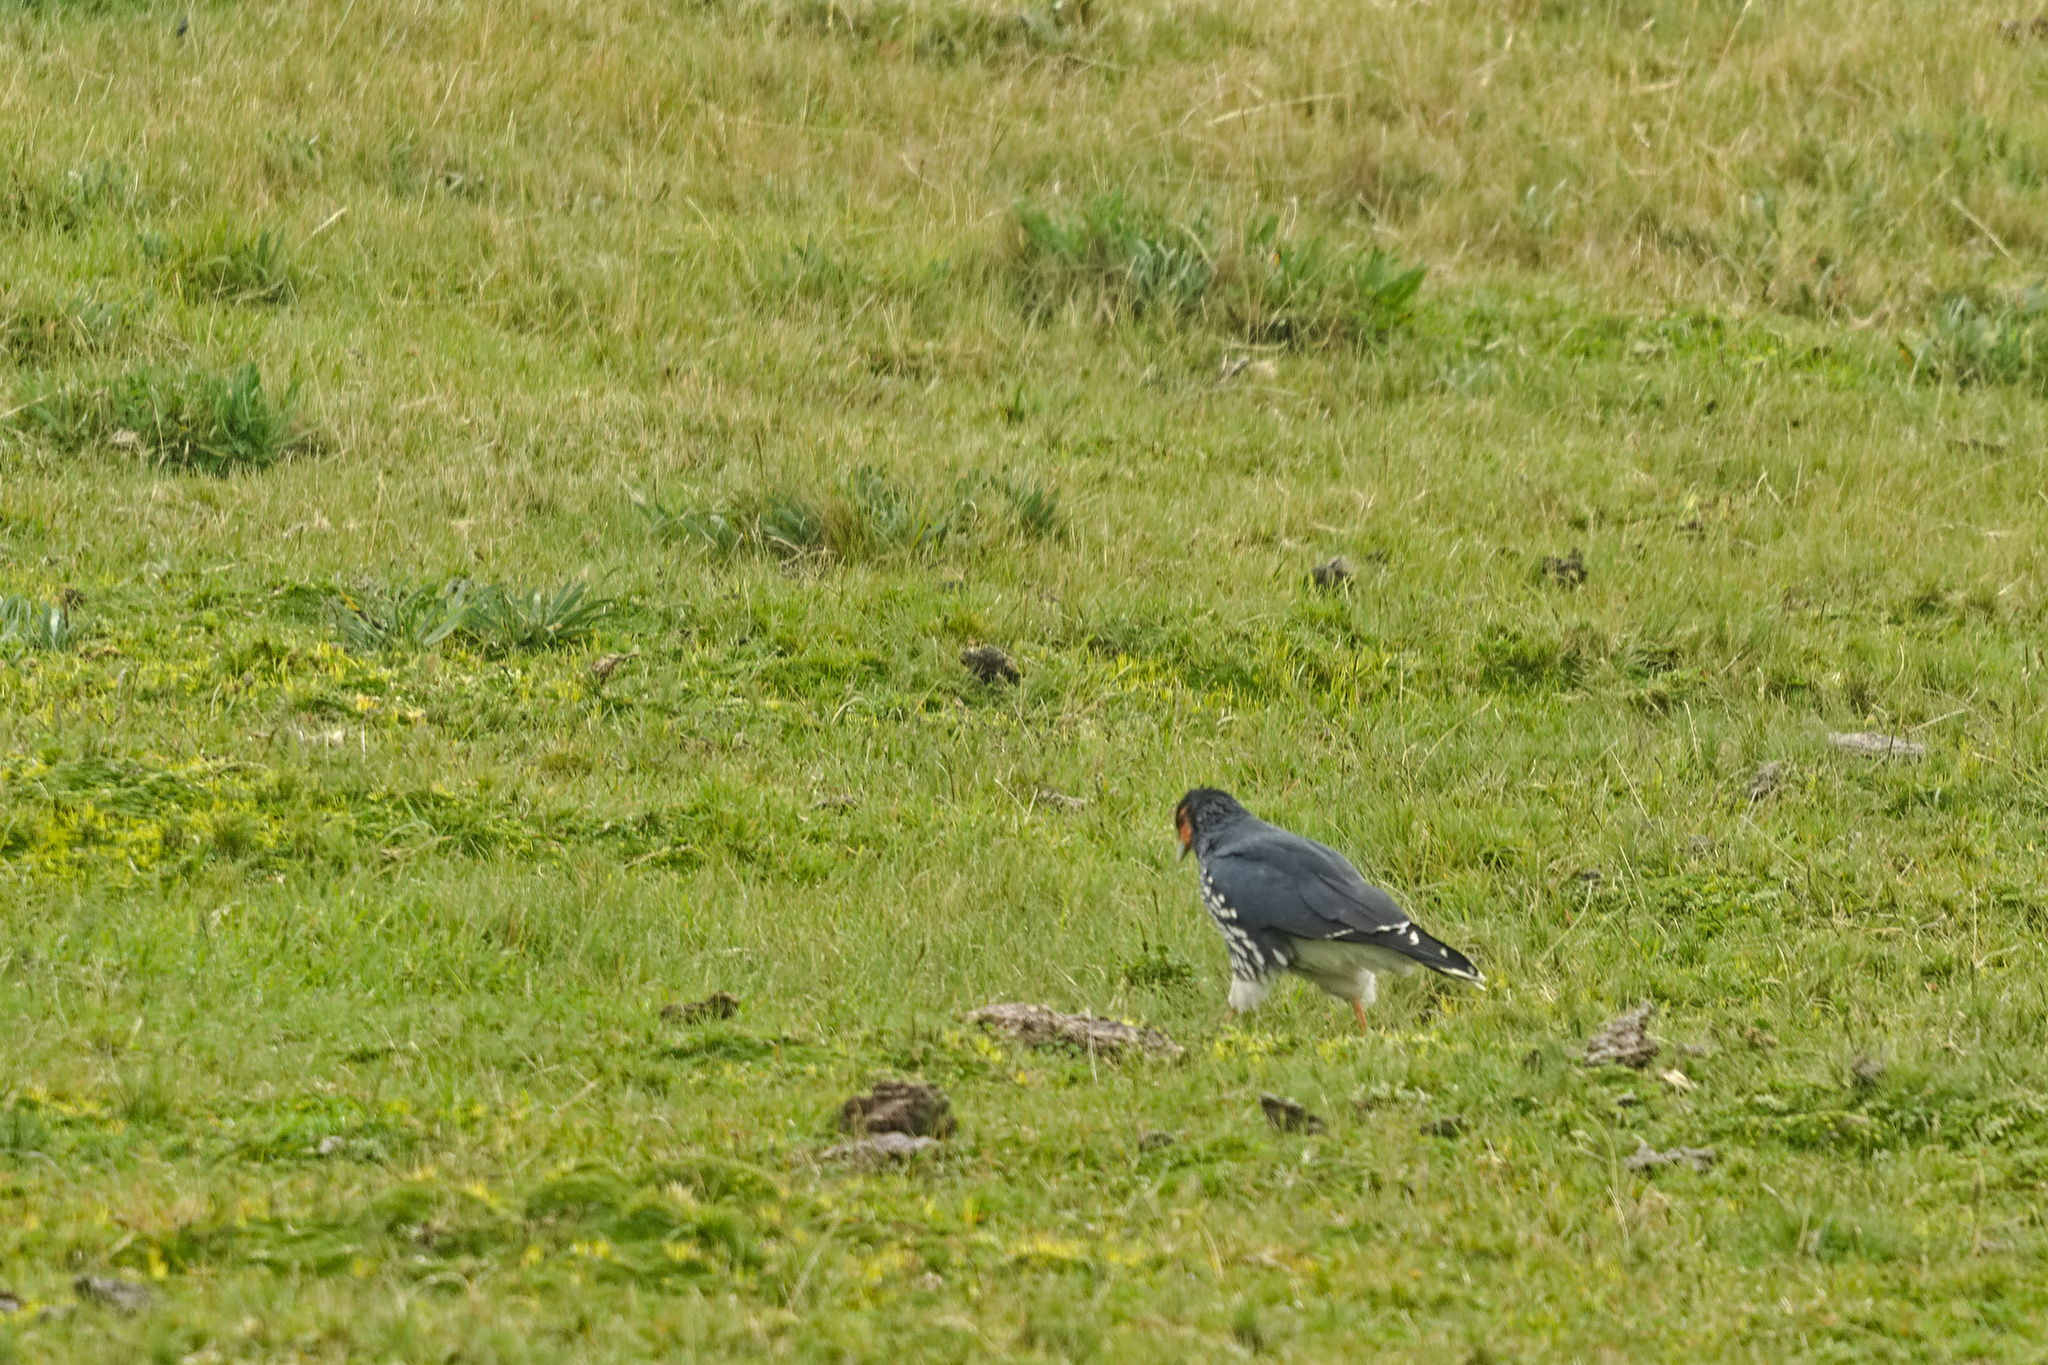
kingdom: Animalia
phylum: Chordata
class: Aves
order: Falconiformes
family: Falconidae
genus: Daptrius
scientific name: Daptrius
